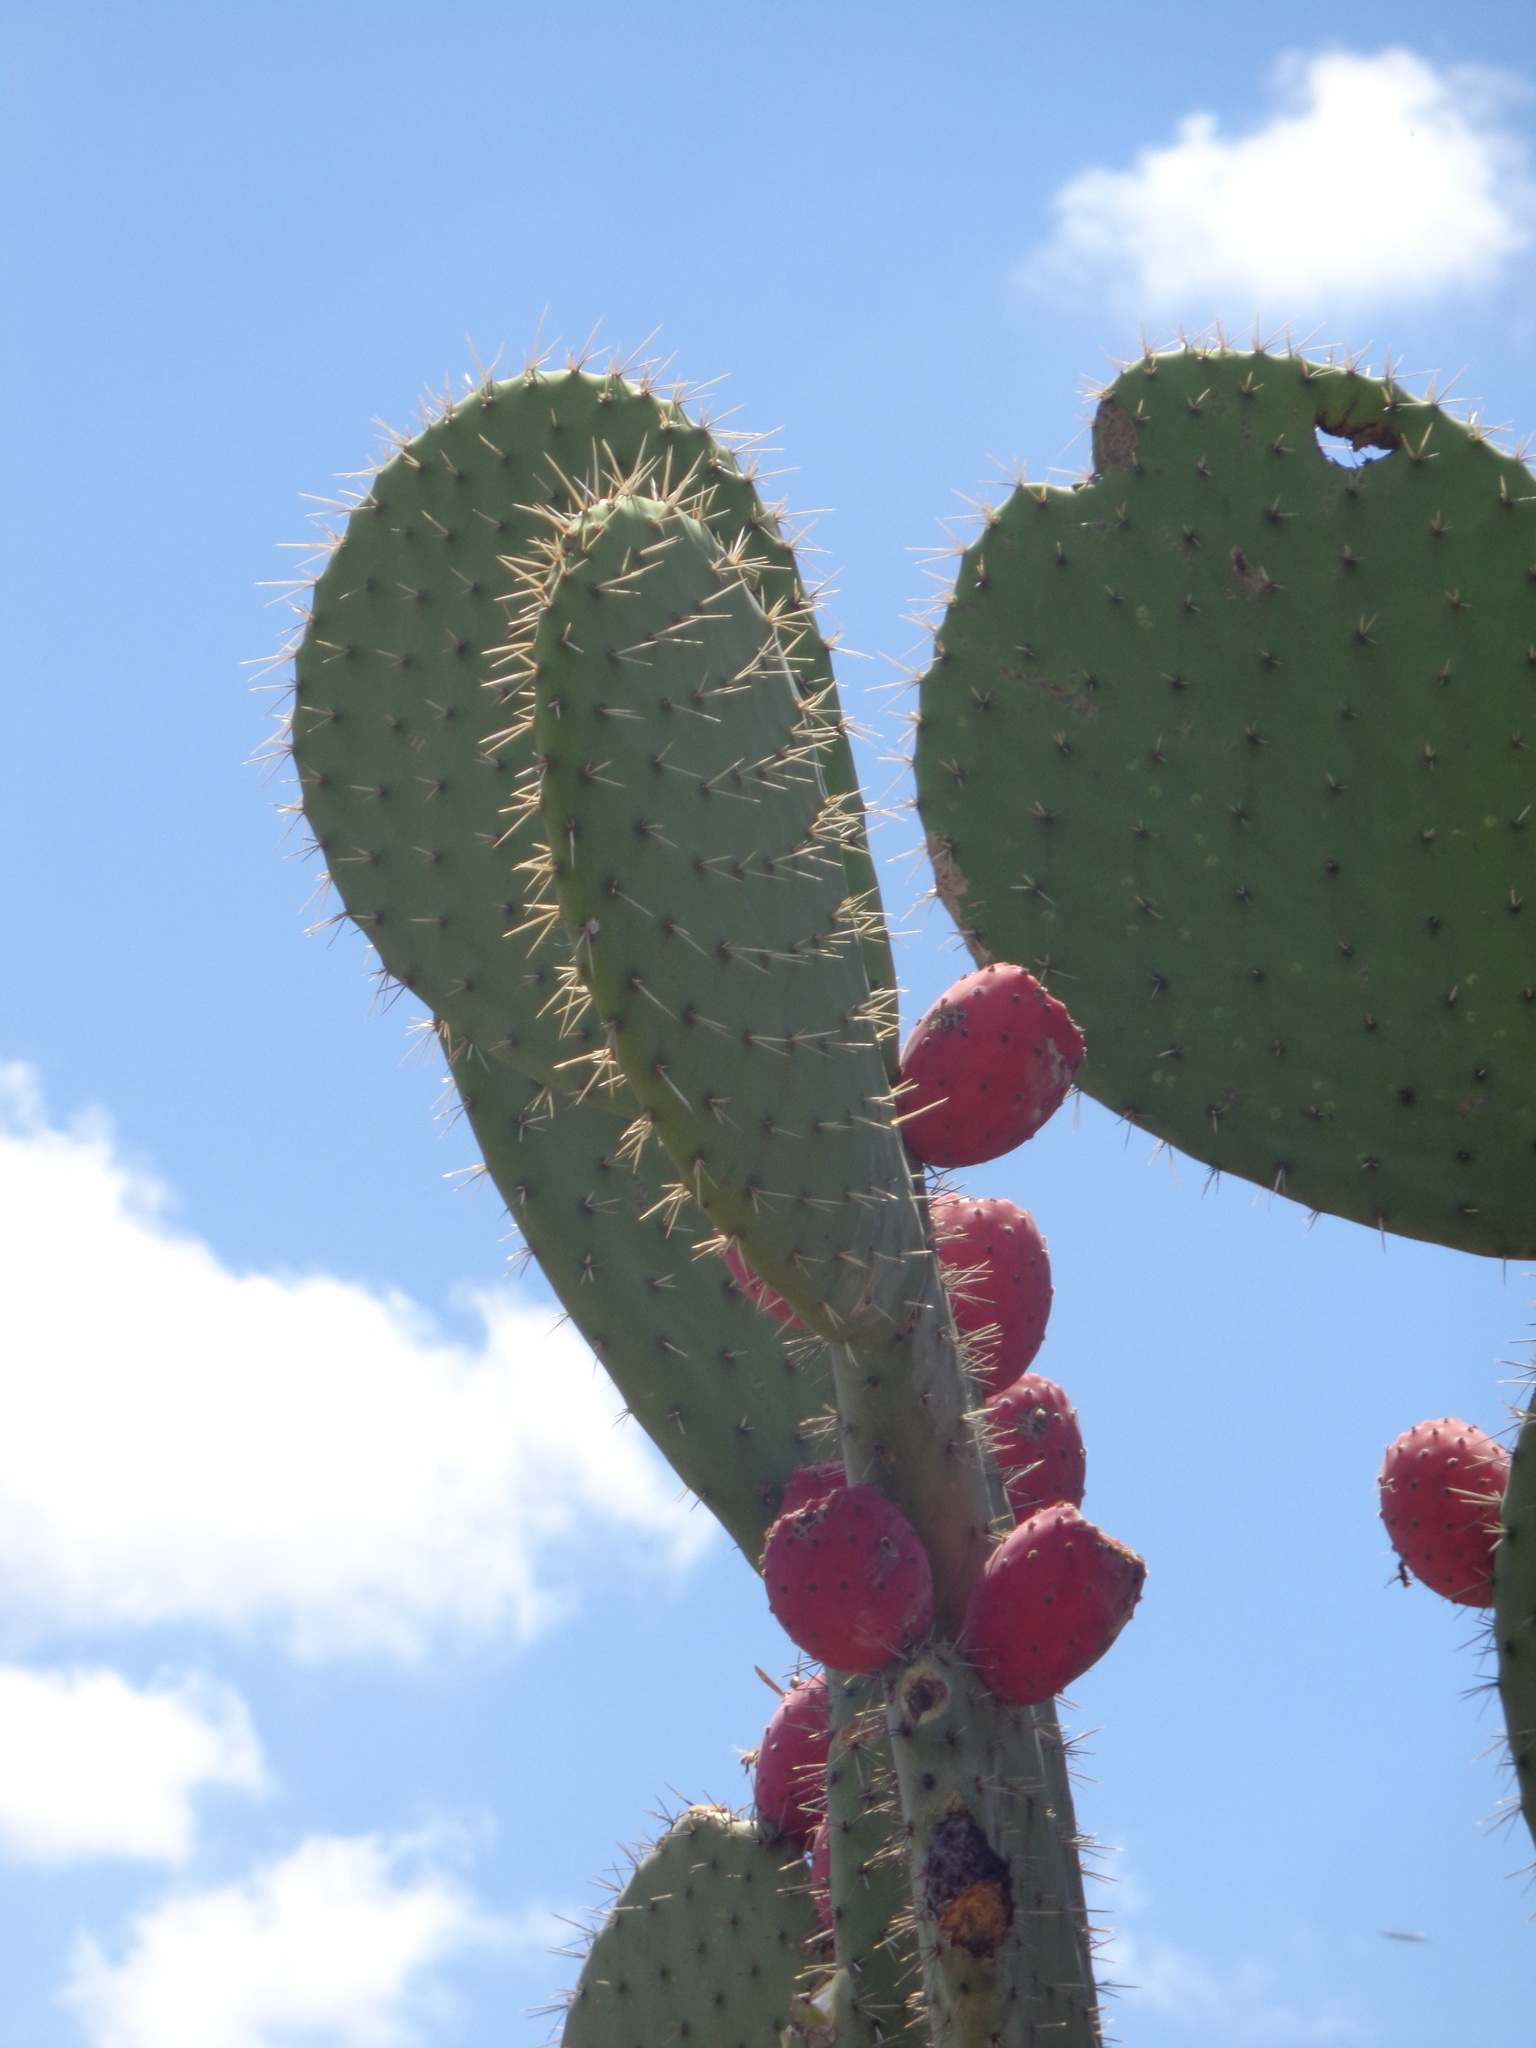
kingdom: Plantae
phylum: Tracheophyta
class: Magnoliopsida
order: Caryophyllales
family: Cactaceae
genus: Opuntia
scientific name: Opuntia streptacantha
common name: Gracemere-pear
